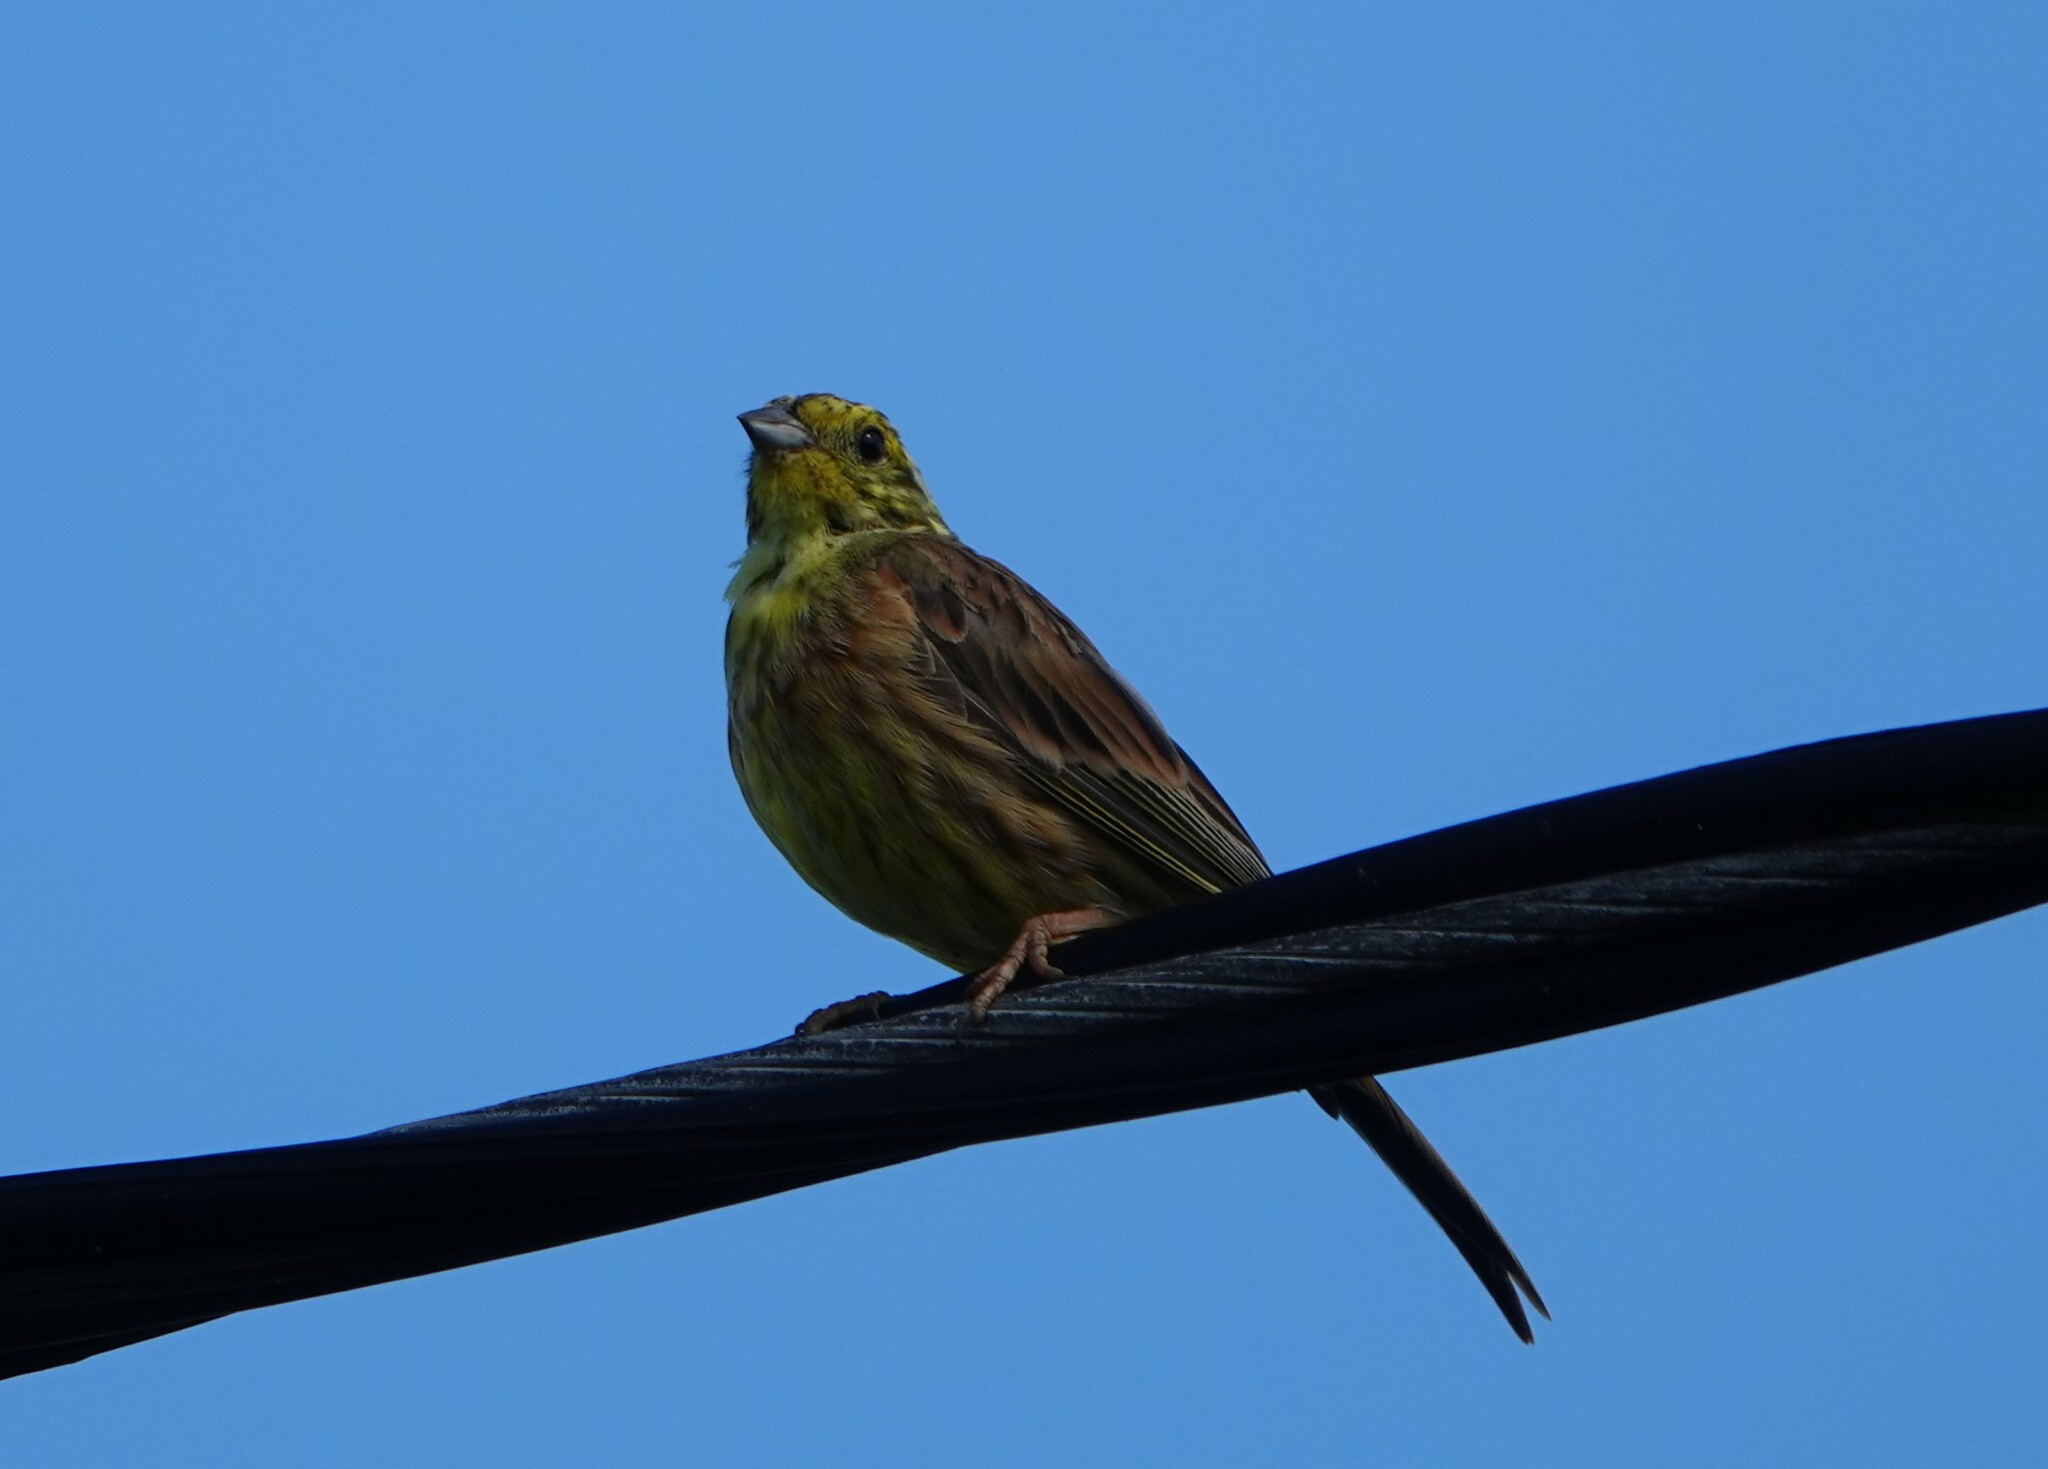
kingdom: Animalia
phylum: Chordata
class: Aves
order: Passeriformes
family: Emberizidae
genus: Emberiza
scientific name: Emberiza citrinella
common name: Yellowhammer
